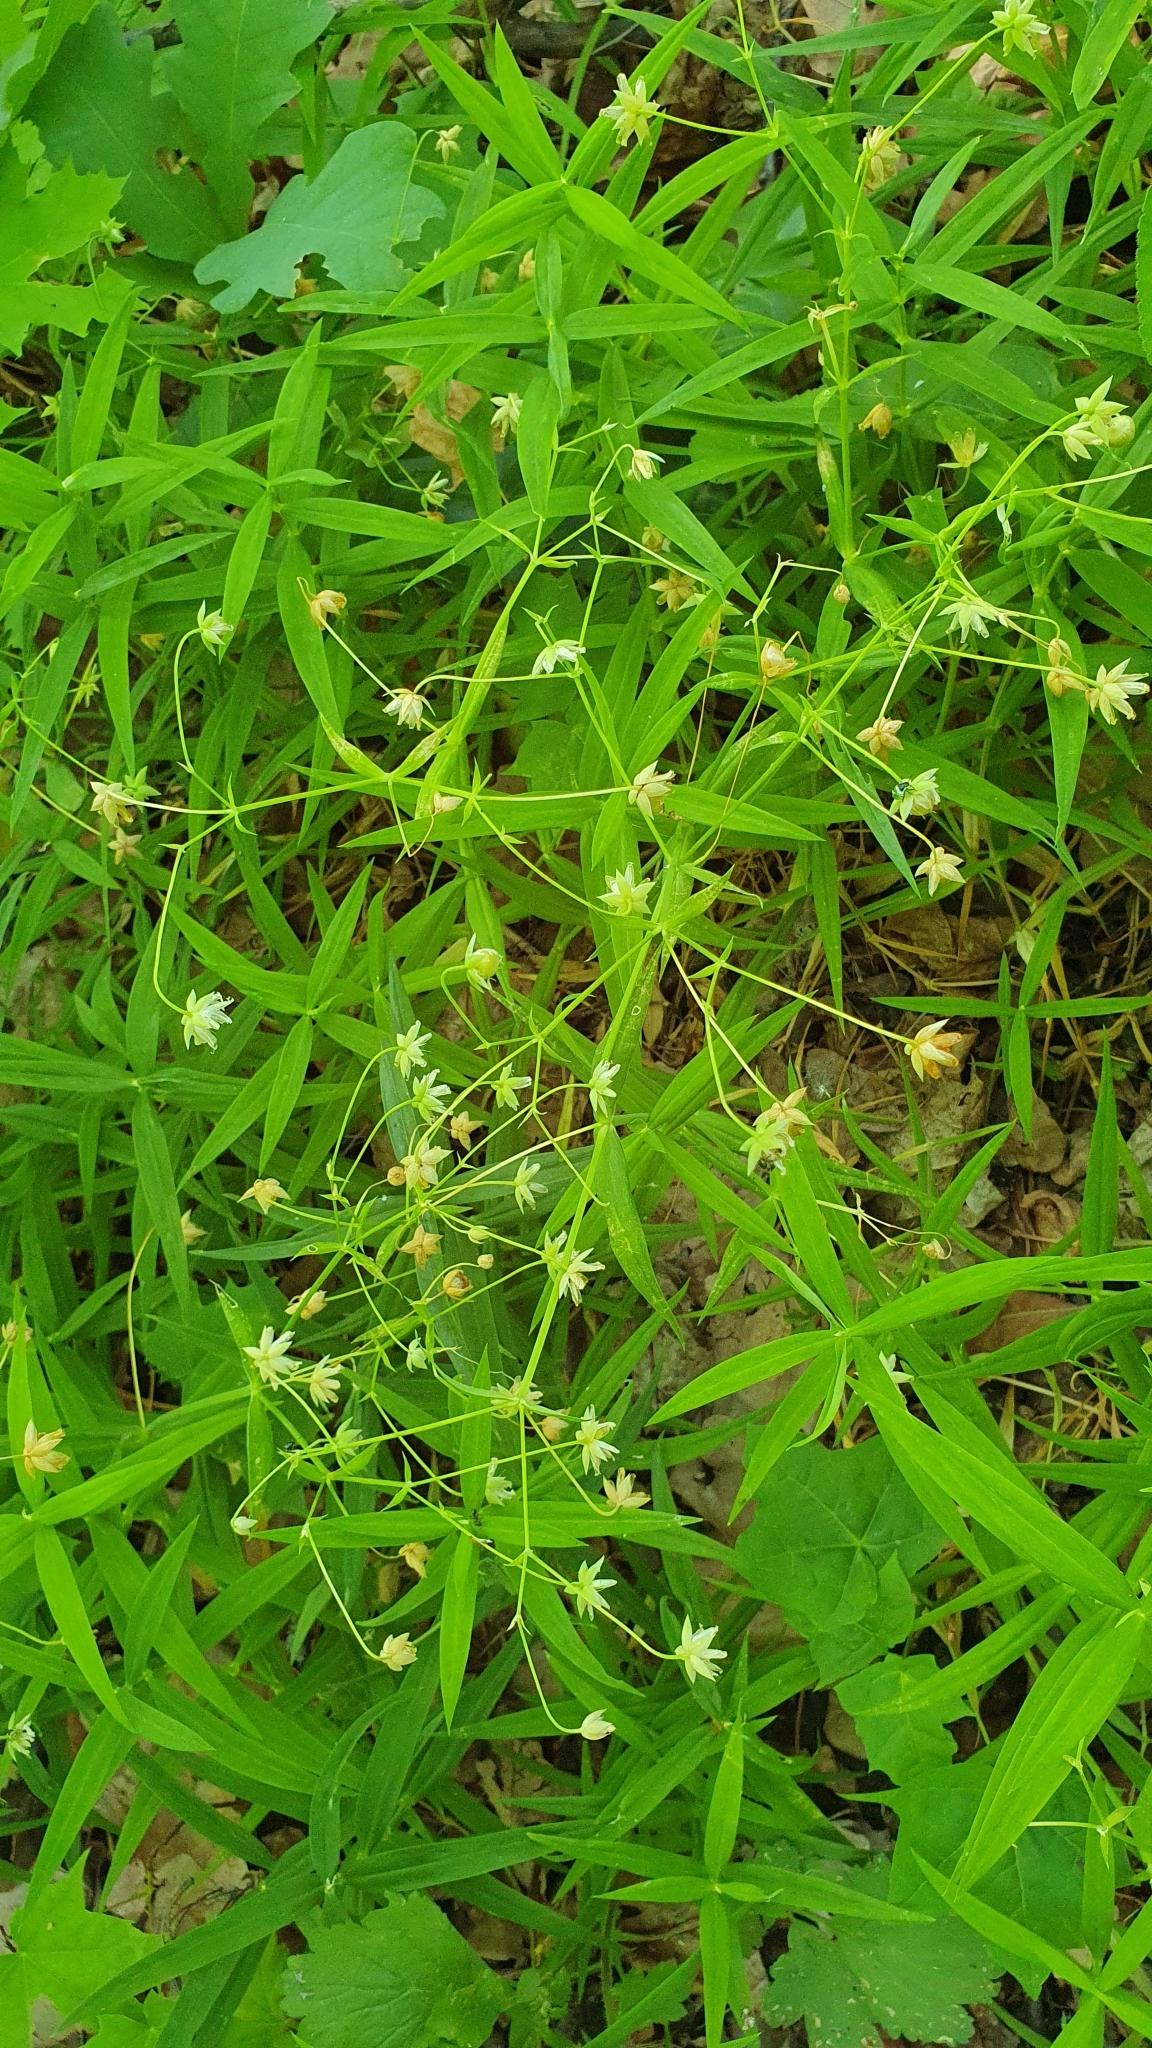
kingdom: Plantae
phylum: Tracheophyta
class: Magnoliopsida
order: Caryophyllales
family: Caryophyllaceae
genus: Rabelera
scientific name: Rabelera holostea
